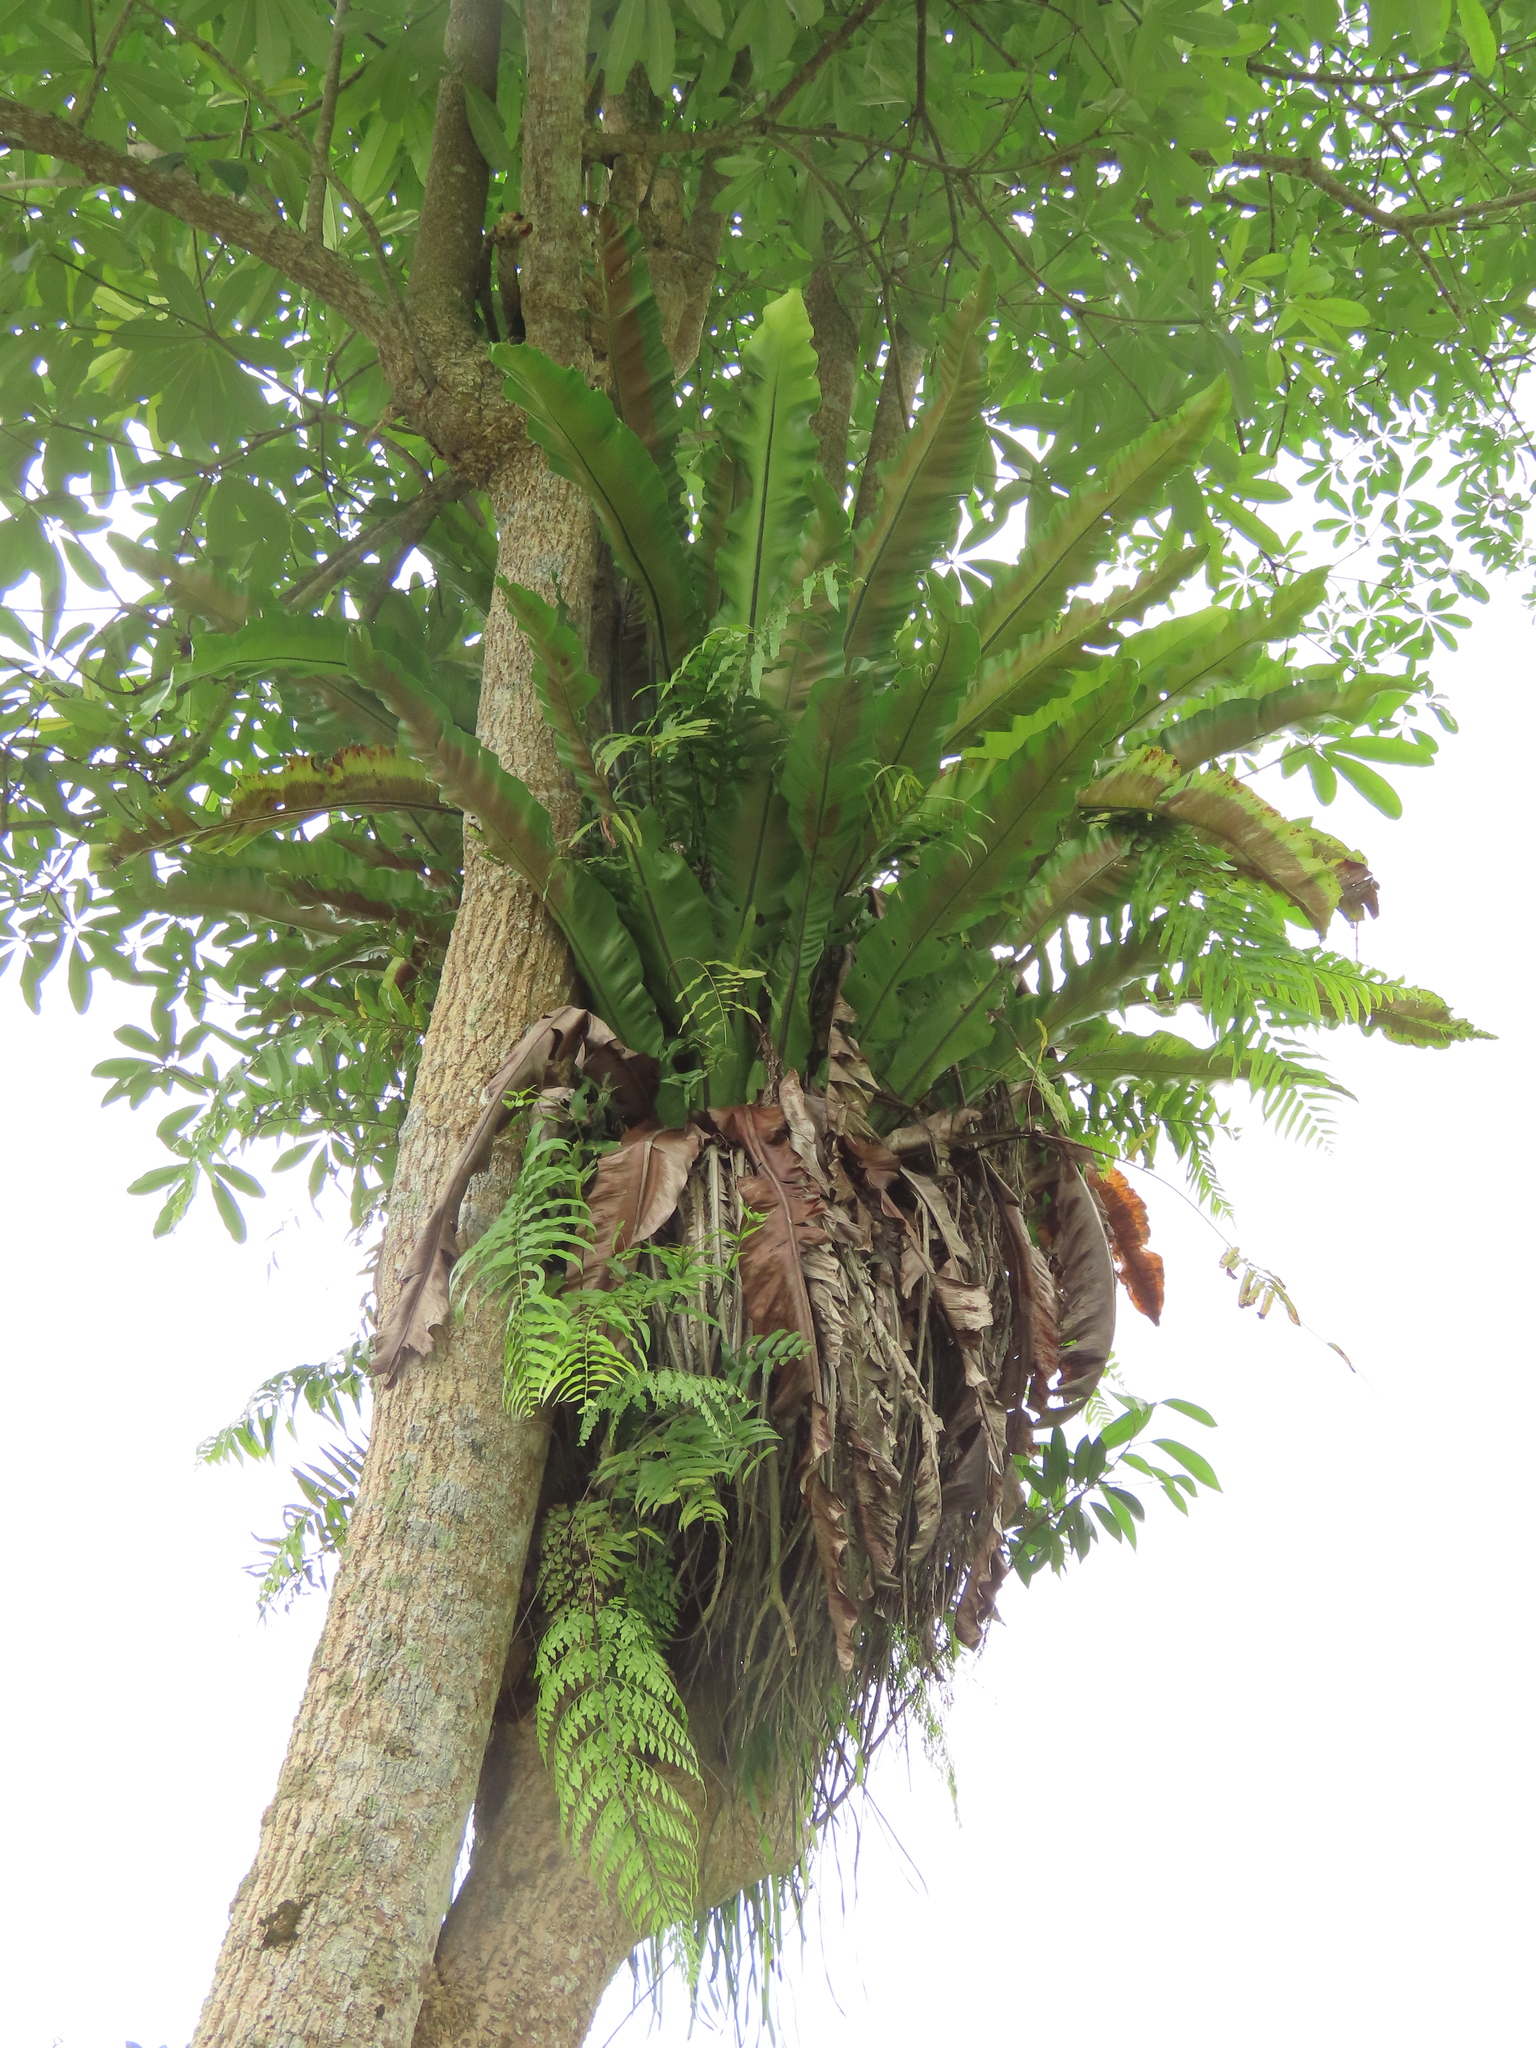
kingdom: Plantae
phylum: Tracheophyta
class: Polypodiopsida
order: Polypodiales
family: Nephrolepidaceae
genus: Nephrolepis
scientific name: Nephrolepis biserrata
